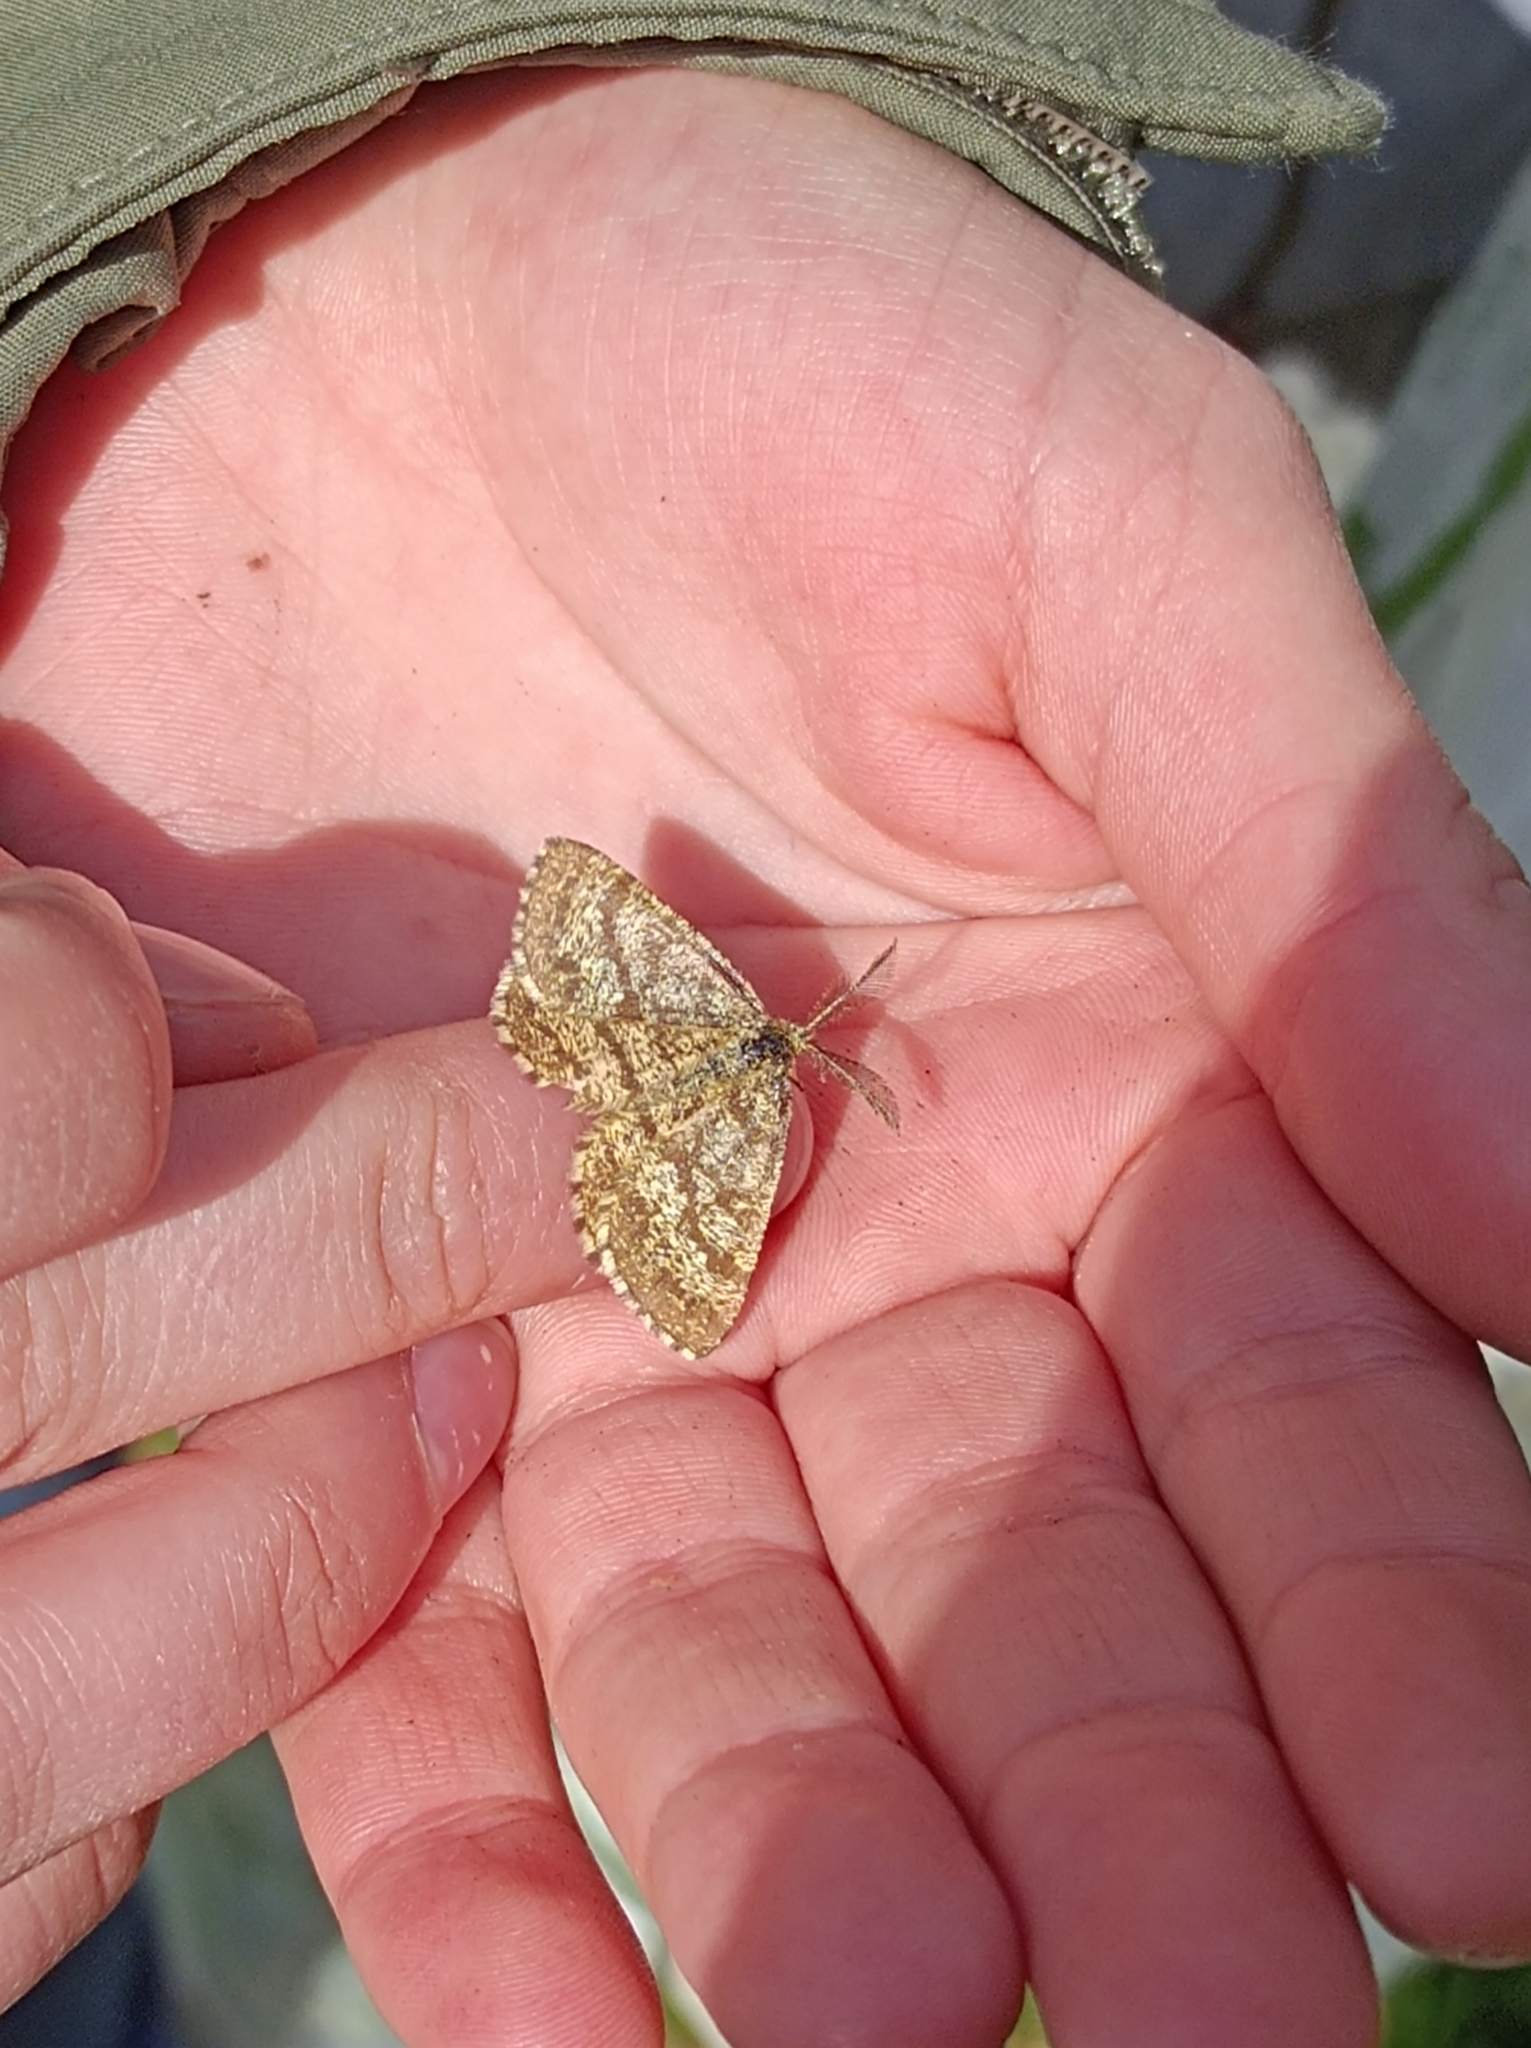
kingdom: Animalia
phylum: Arthropoda
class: Insecta
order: Lepidoptera
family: Geometridae
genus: Ematurga
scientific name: Ematurga atomaria
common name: Common heath
